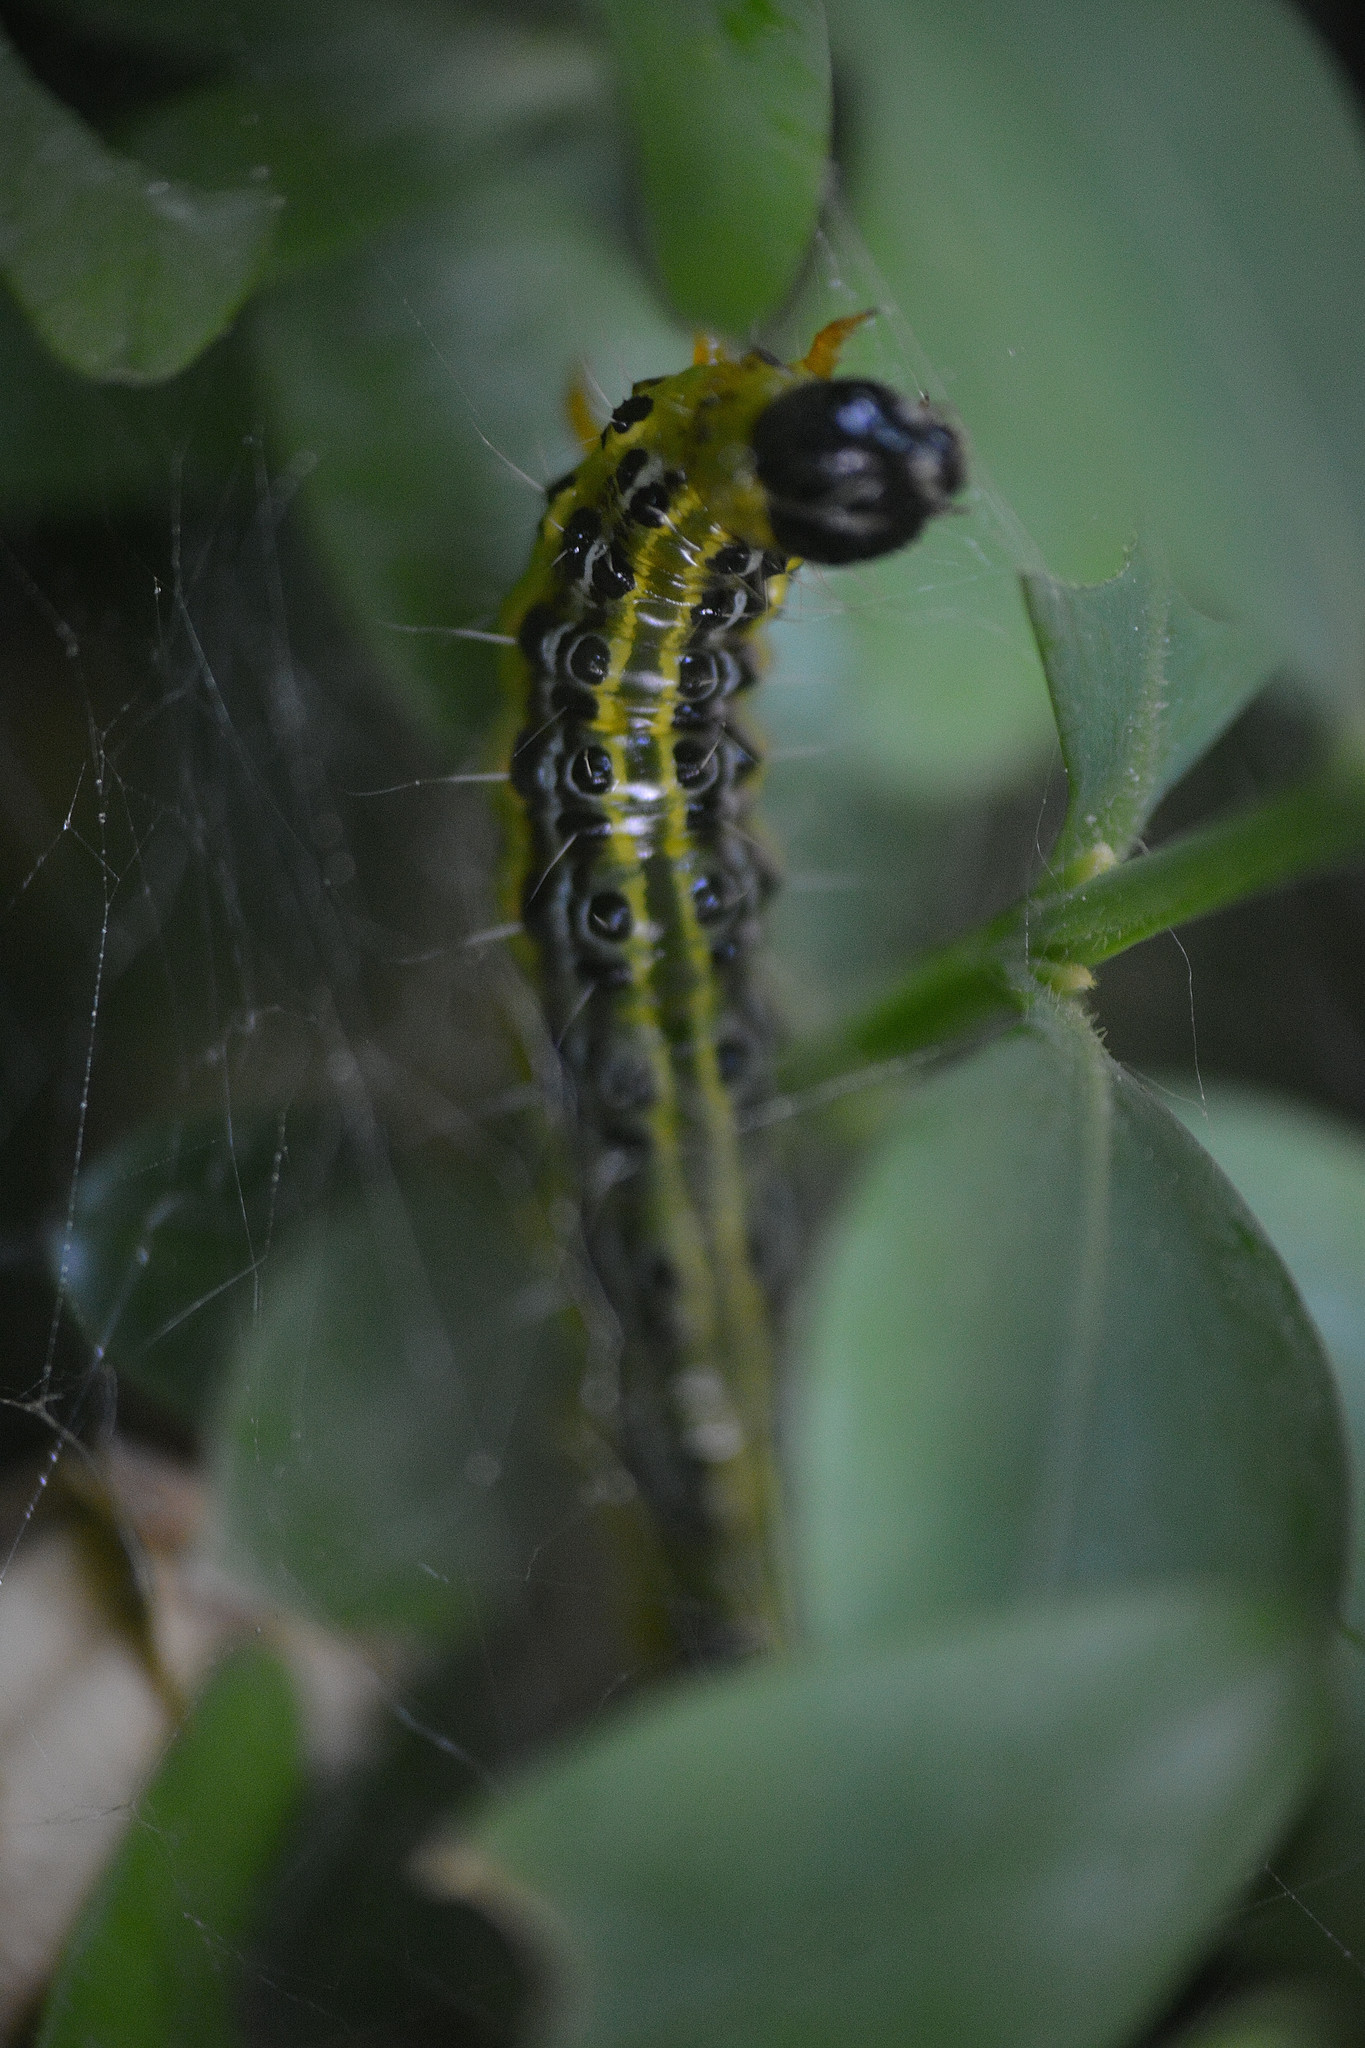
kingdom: Animalia
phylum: Arthropoda
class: Insecta
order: Lepidoptera
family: Crambidae
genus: Cydalima
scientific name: Cydalima perspectalis
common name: Box tree moth
